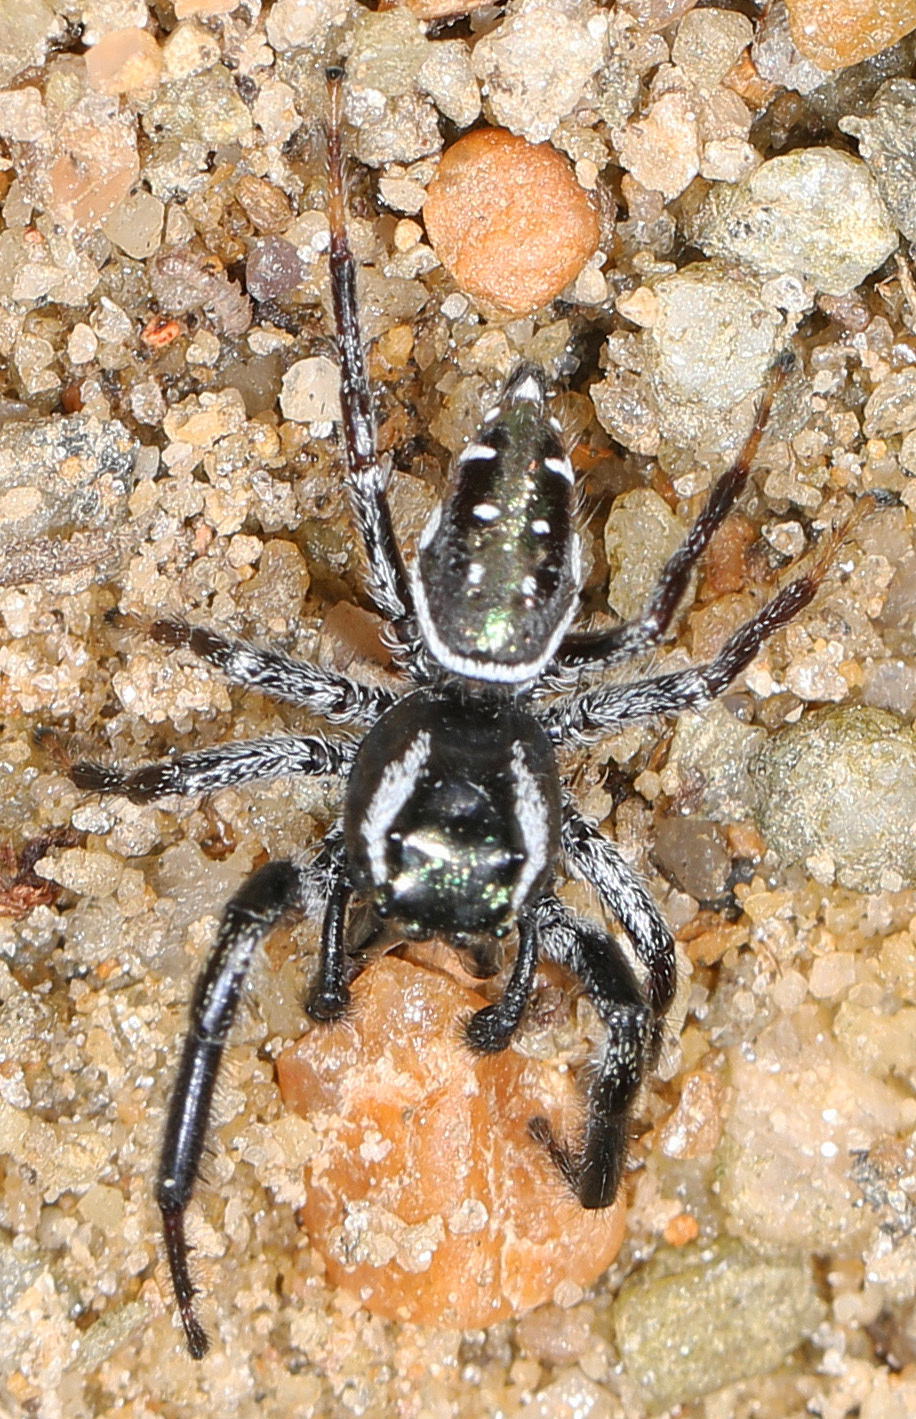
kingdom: Animalia
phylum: Arthropoda
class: Arachnida
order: Araneae
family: Salticidae
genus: Paraphidippus
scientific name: Paraphidippus aurantius
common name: Jumping spiders
